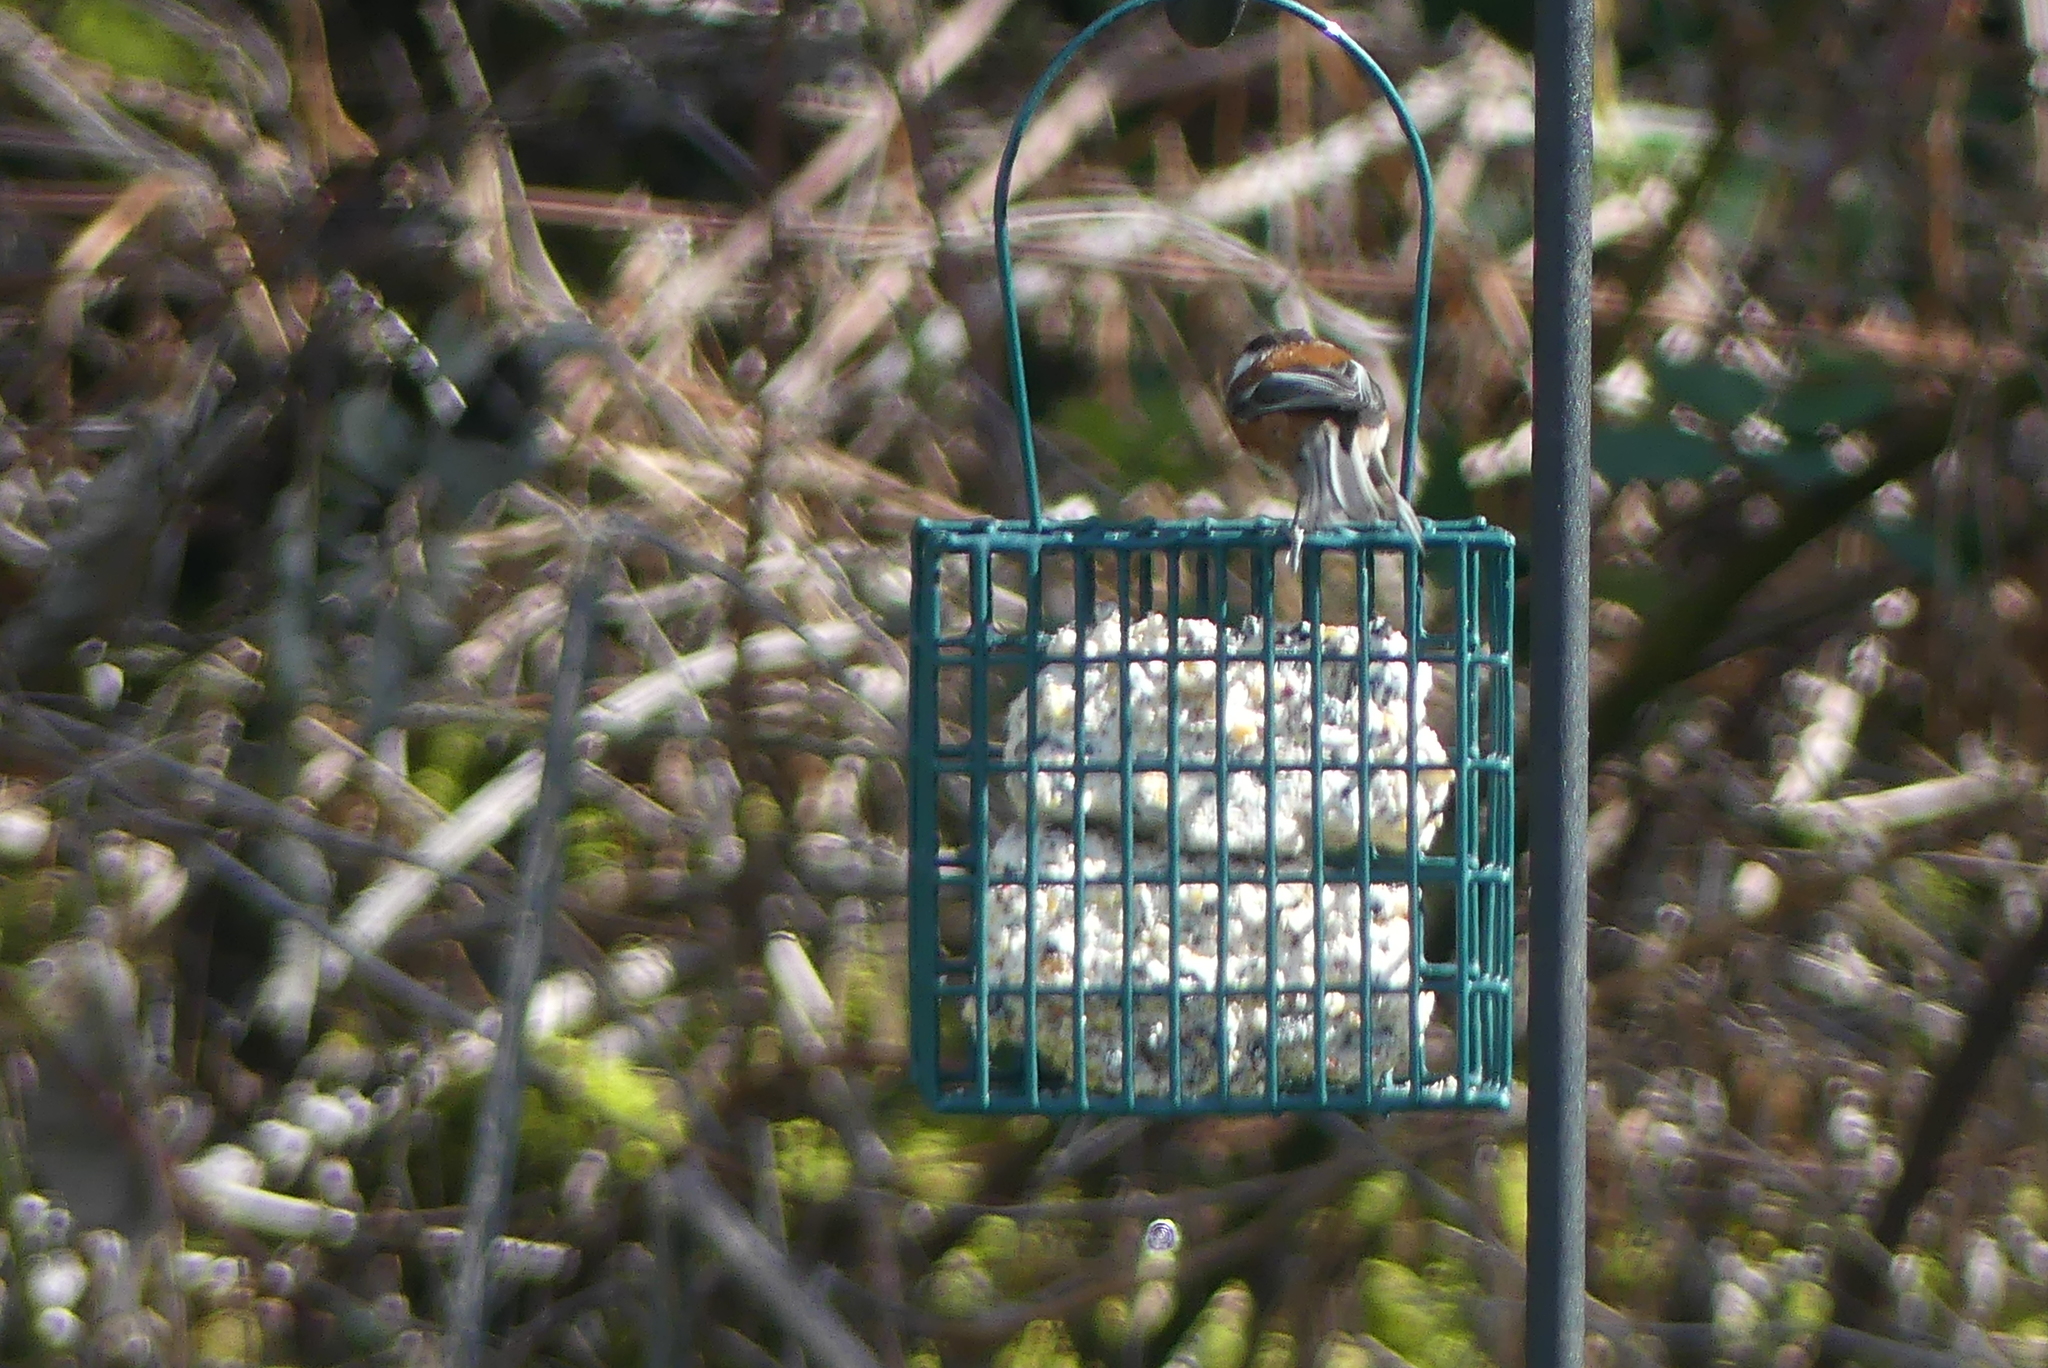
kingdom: Animalia
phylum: Chordata
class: Aves
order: Passeriformes
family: Paridae
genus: Poecile
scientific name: Poecile rufescens
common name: Chestnut-backed chickadee
